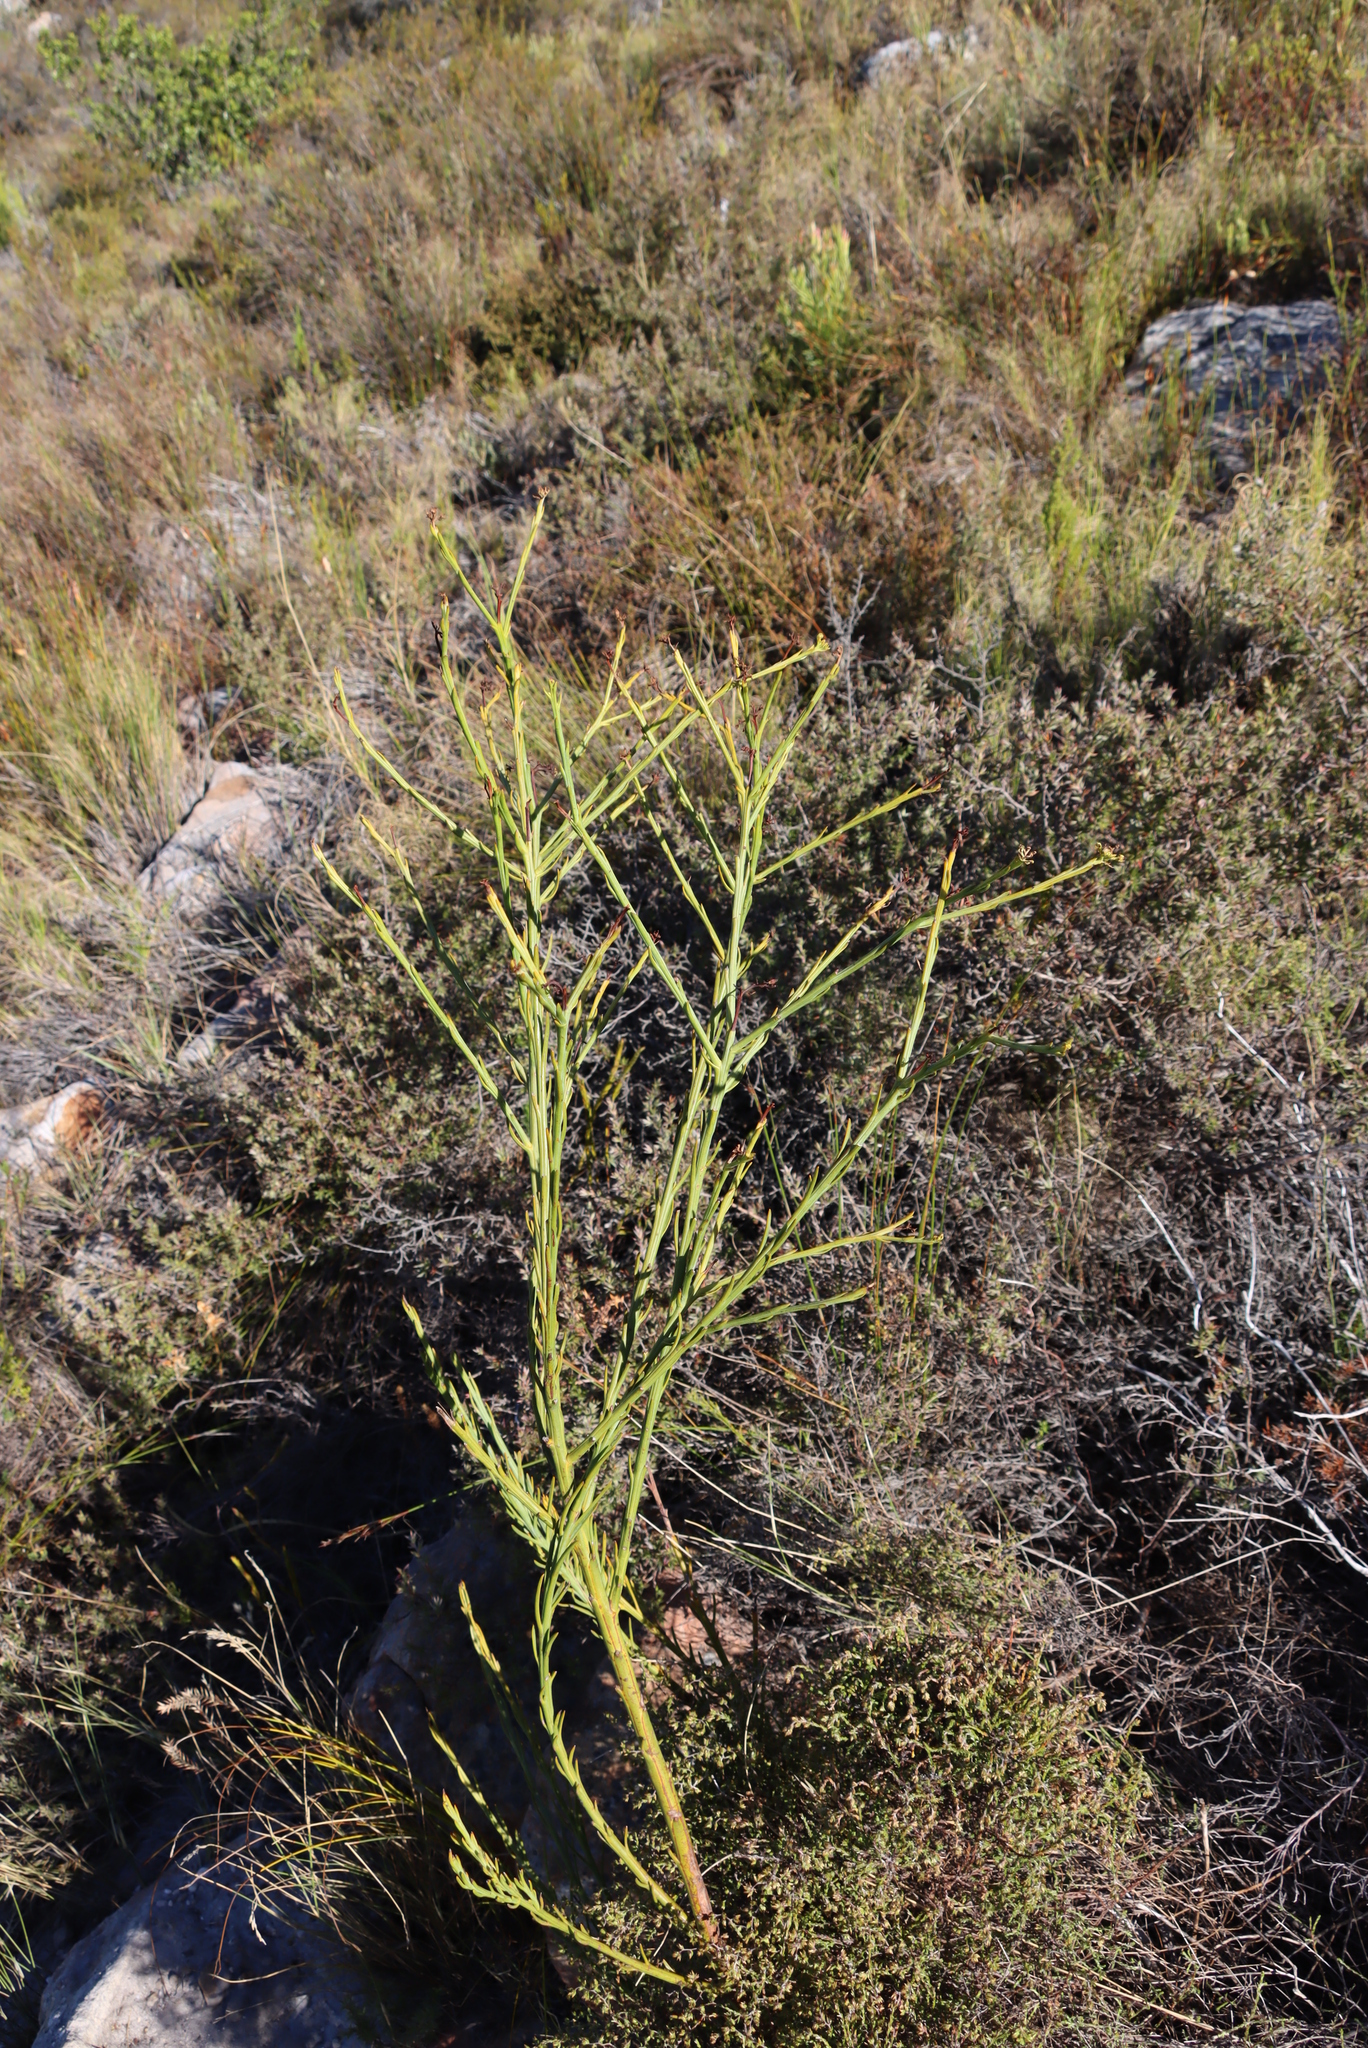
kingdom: Plantae
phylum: Tracheophyta
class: Magnoliopsida
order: Santalales
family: Thesiaceae
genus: Thesium
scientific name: Thesium strictum
